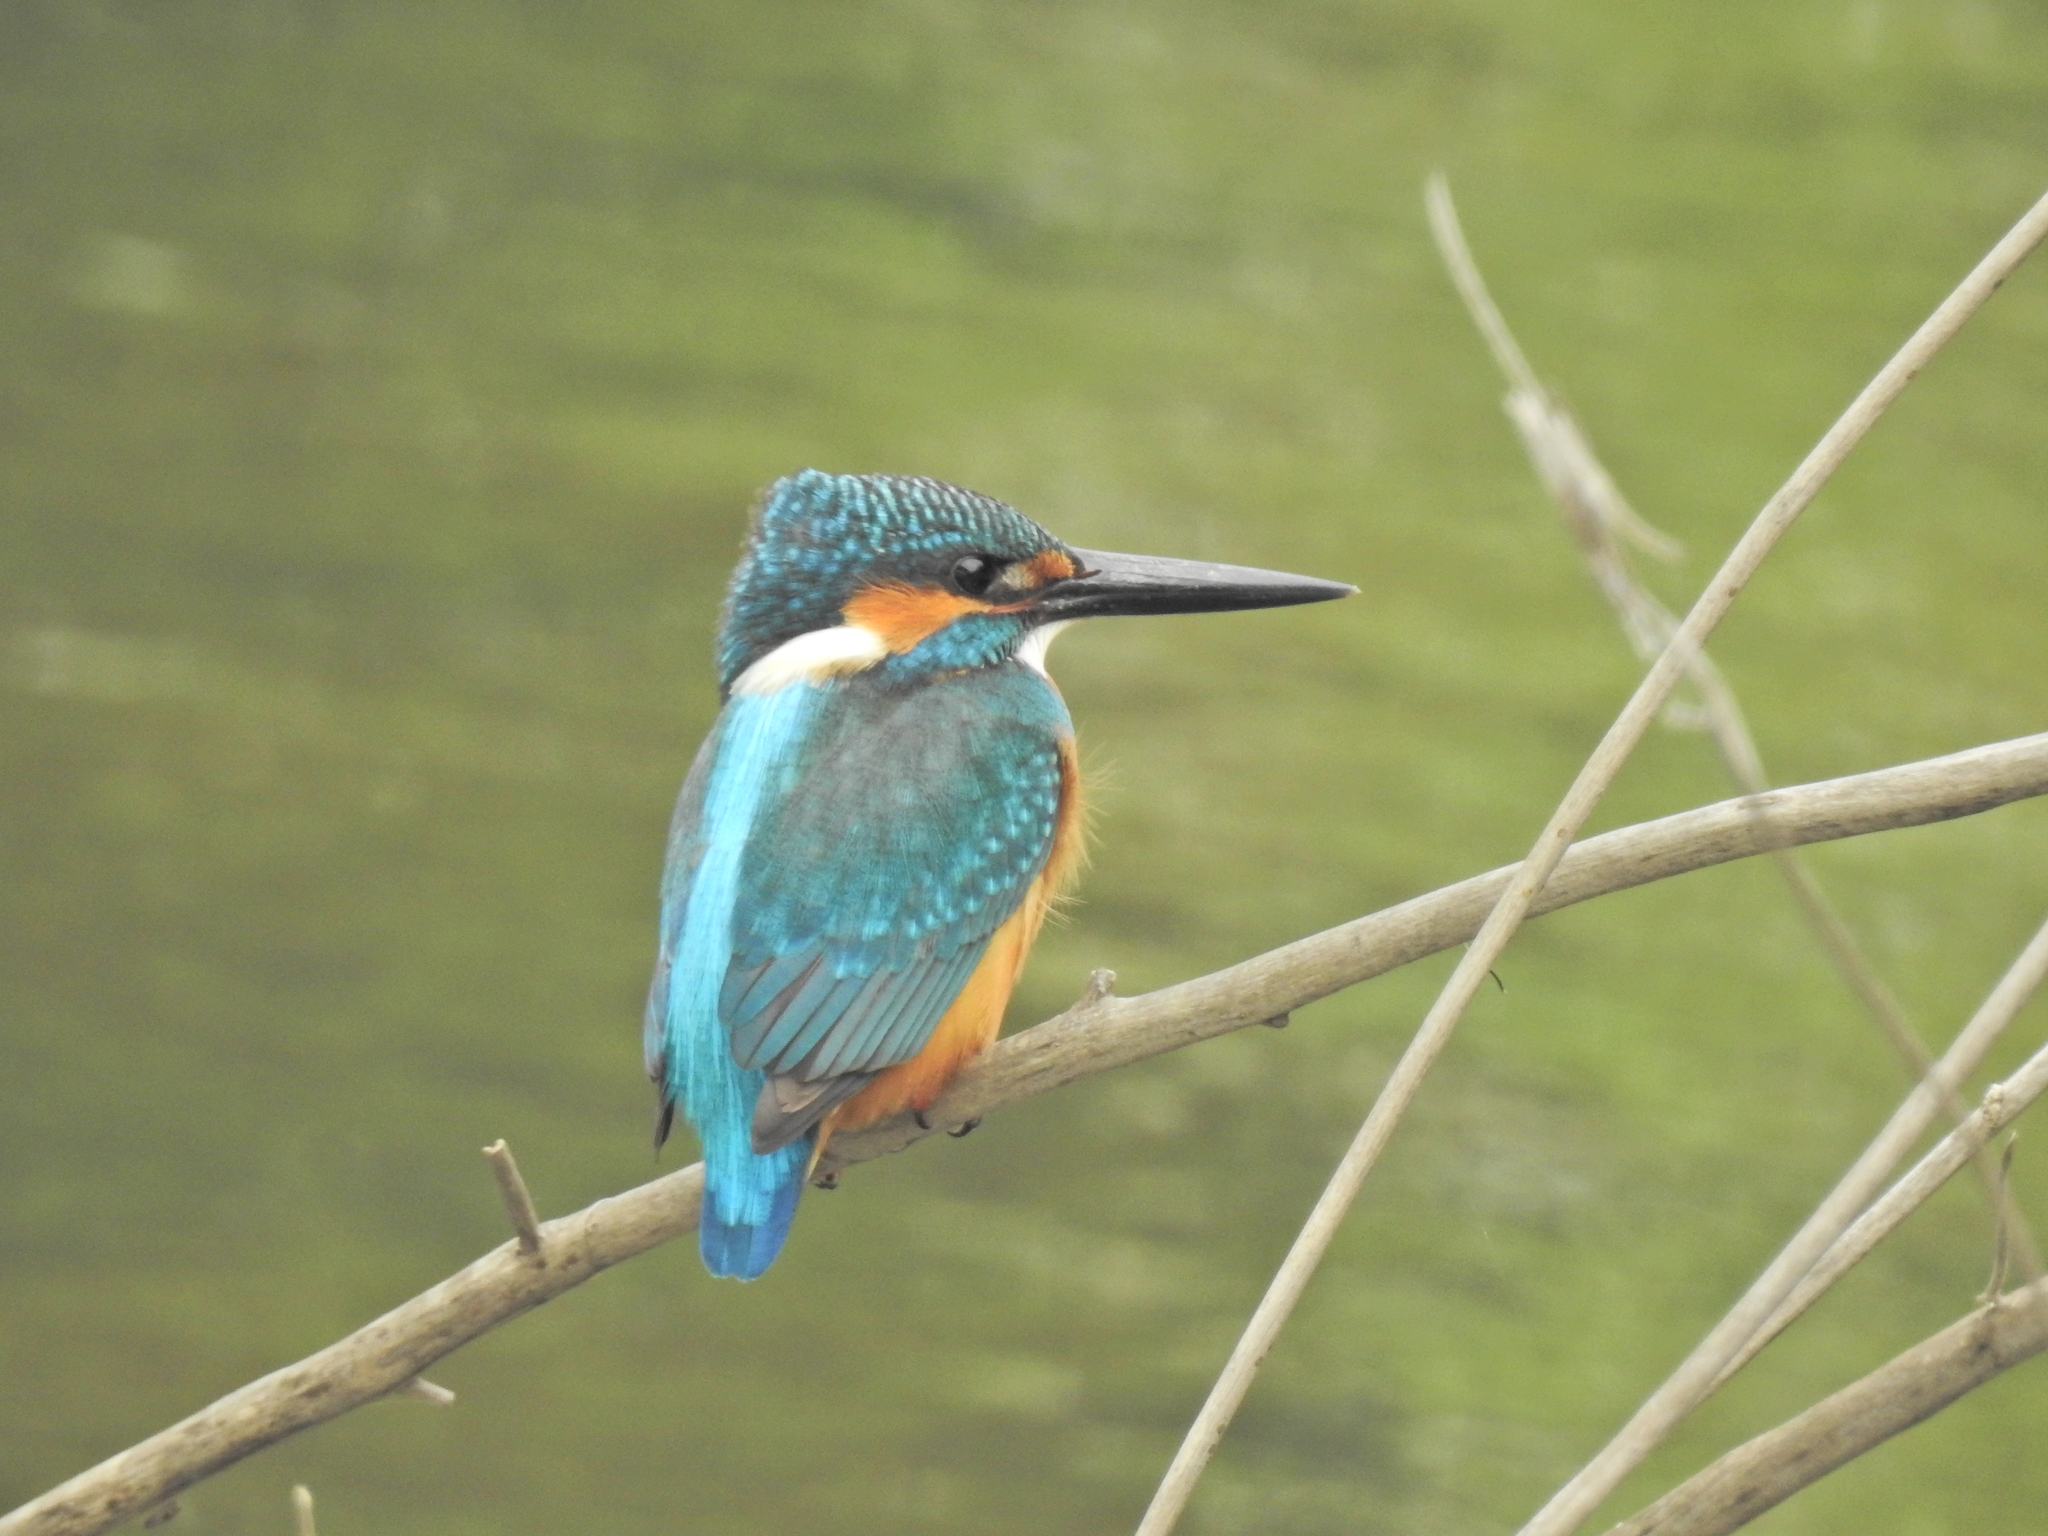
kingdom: Animalia
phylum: Chordata
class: Aves
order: Coraciiformes
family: Alcedinidae
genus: Alcedo
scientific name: Alcedo atthis
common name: Common kingfisher
